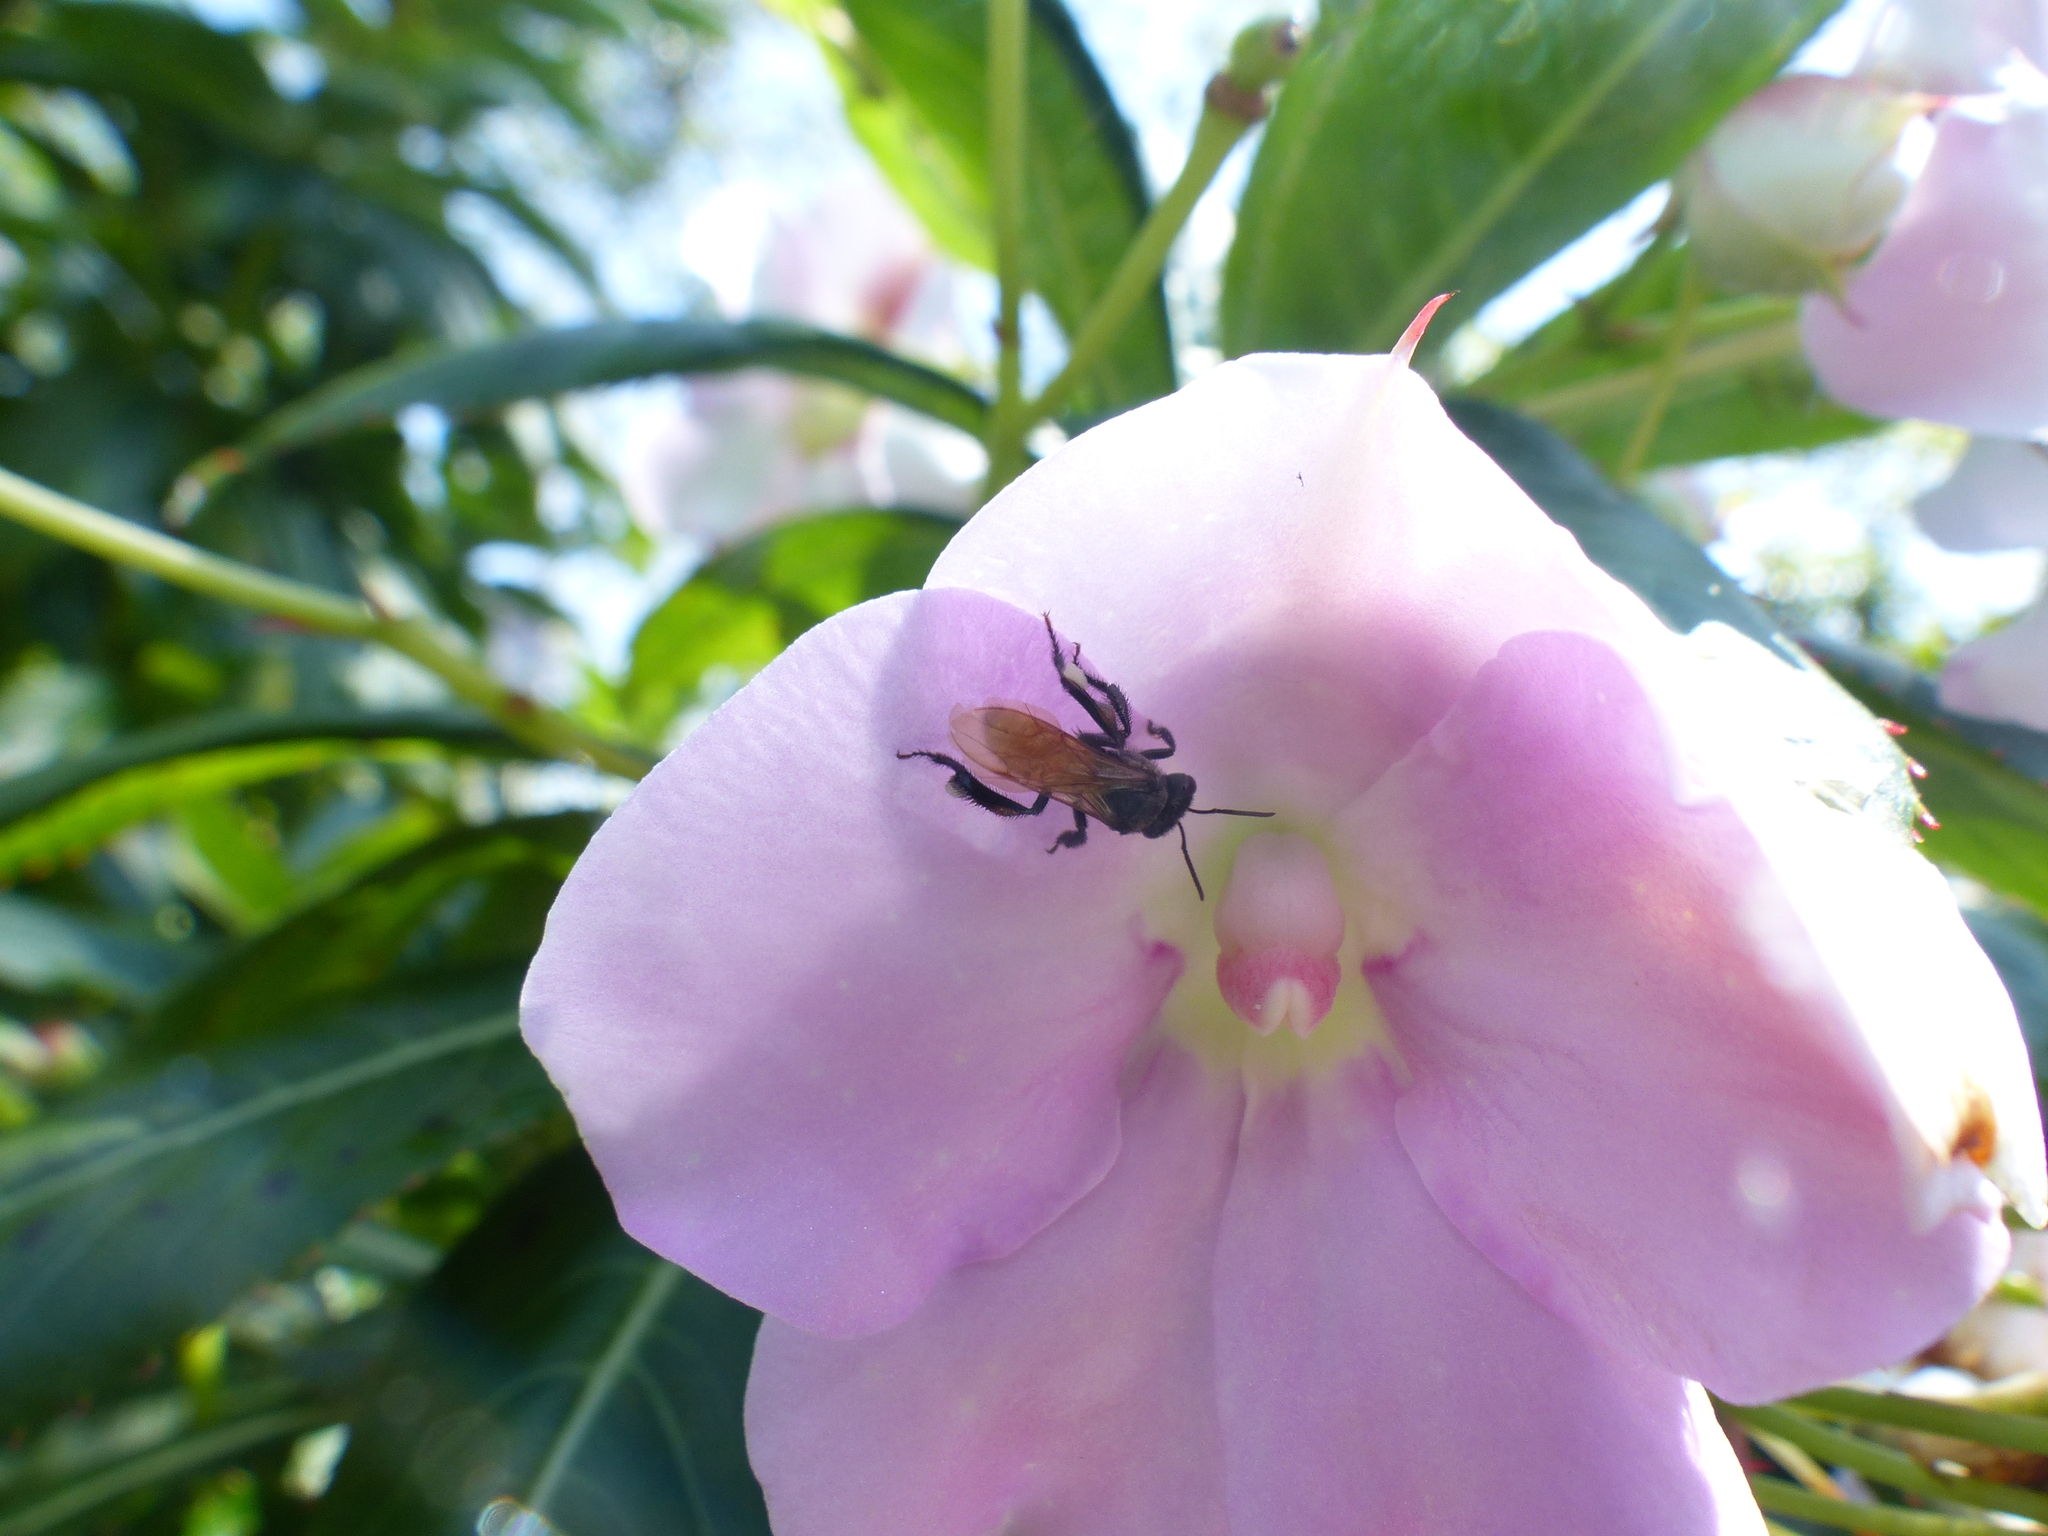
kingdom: Animalia
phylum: Arthropoda
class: Insecta
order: Hymenoptera
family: Apidae
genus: Trigona
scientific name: Trigona fulviventris
